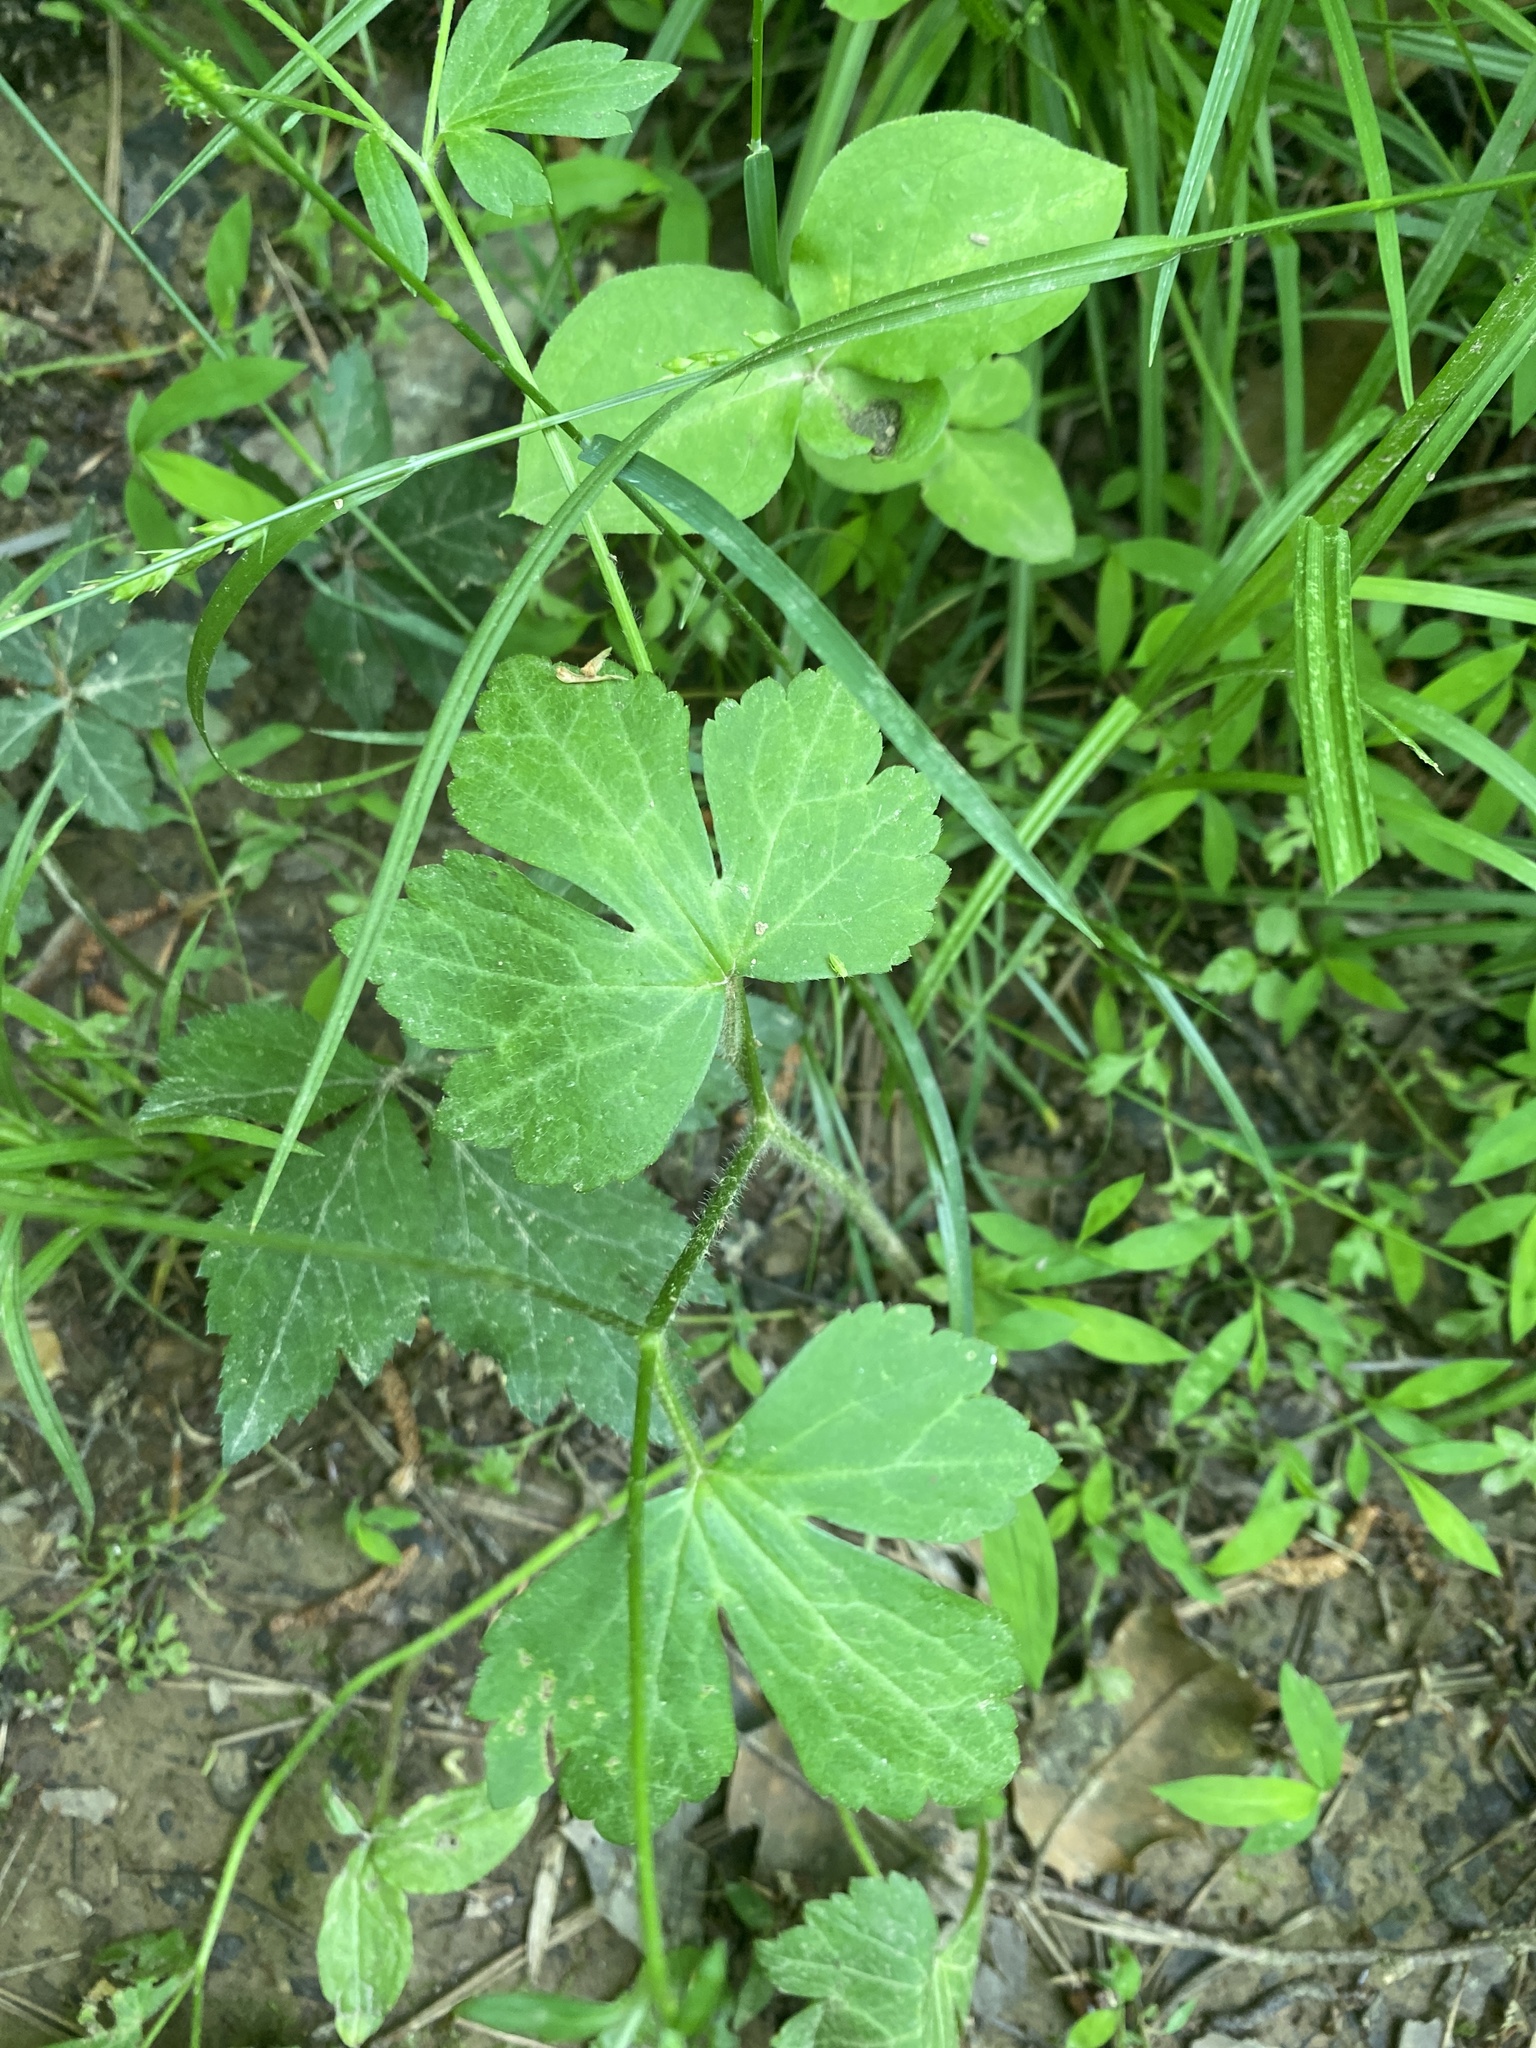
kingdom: Plantae
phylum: Tracheophyta
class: Magnoliopsida
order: Ranunculales
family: Ranunculaceae
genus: Ranunculus
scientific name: Ranunculus recurvatus
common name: Blisterwort
